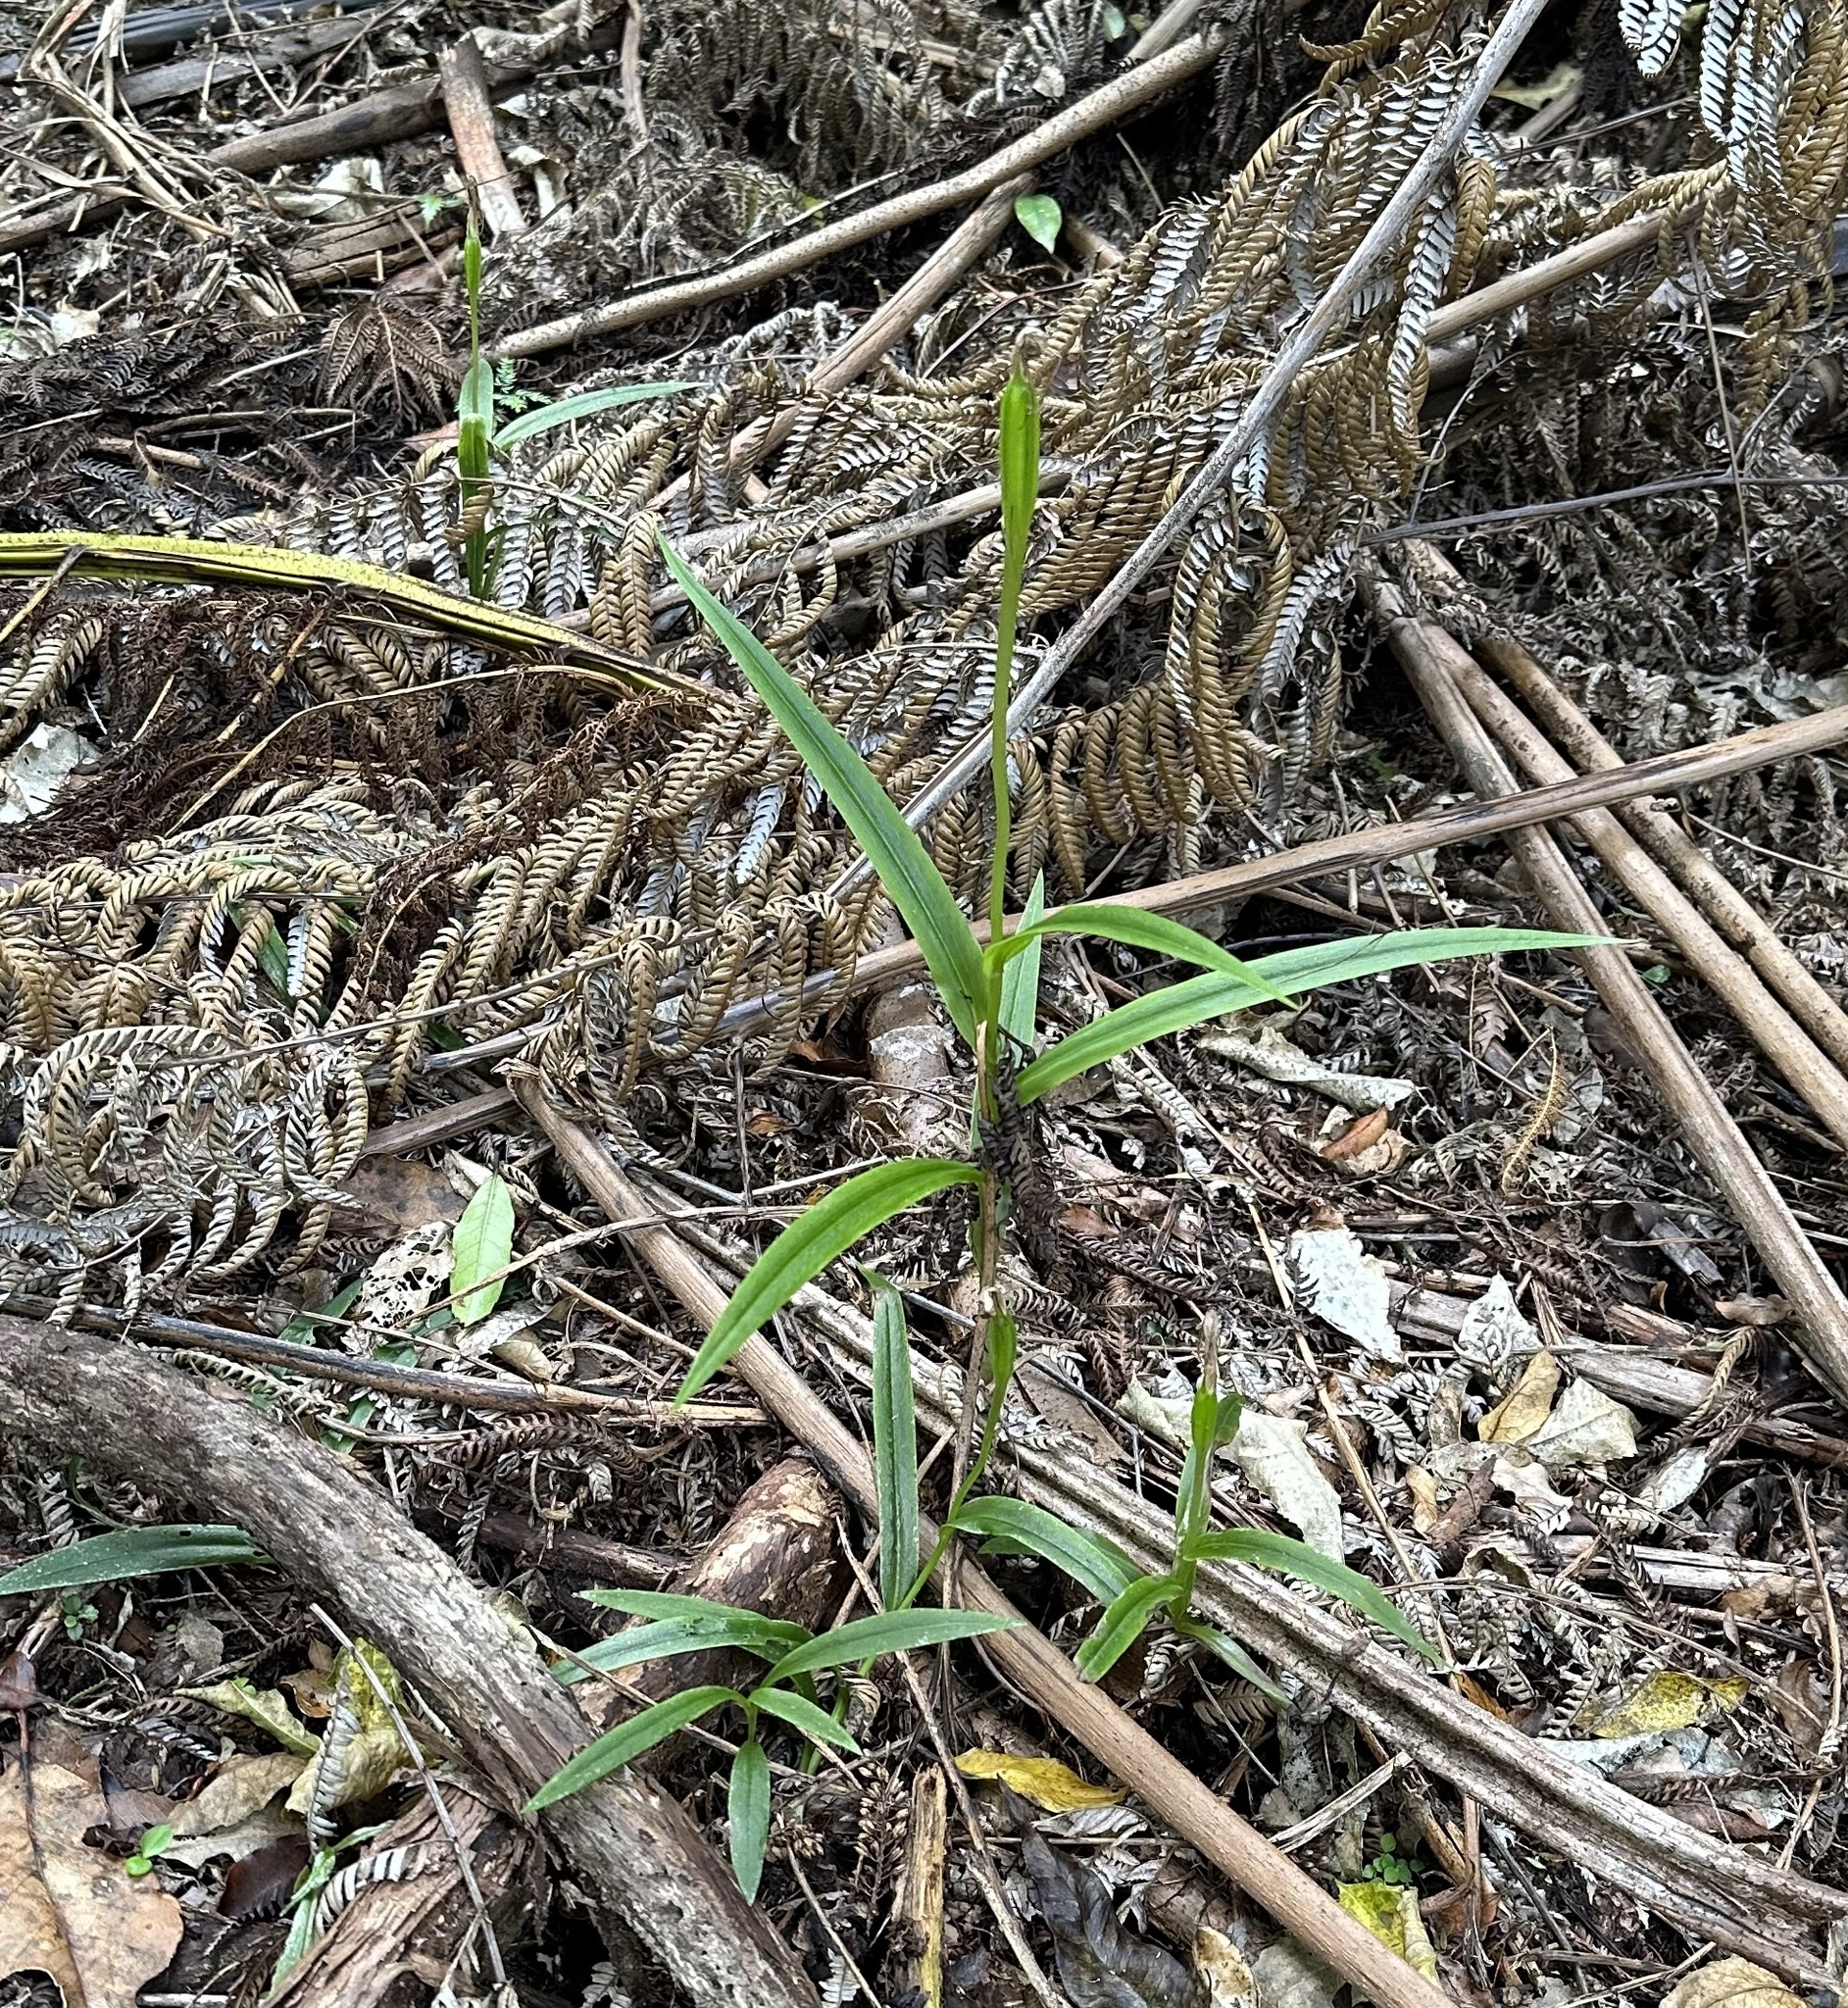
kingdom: Plantae
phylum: Tracheophyta
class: Liliopsida
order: Asparagales
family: Orchidaceae
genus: Pterostylis
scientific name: Pterostylis banksii
